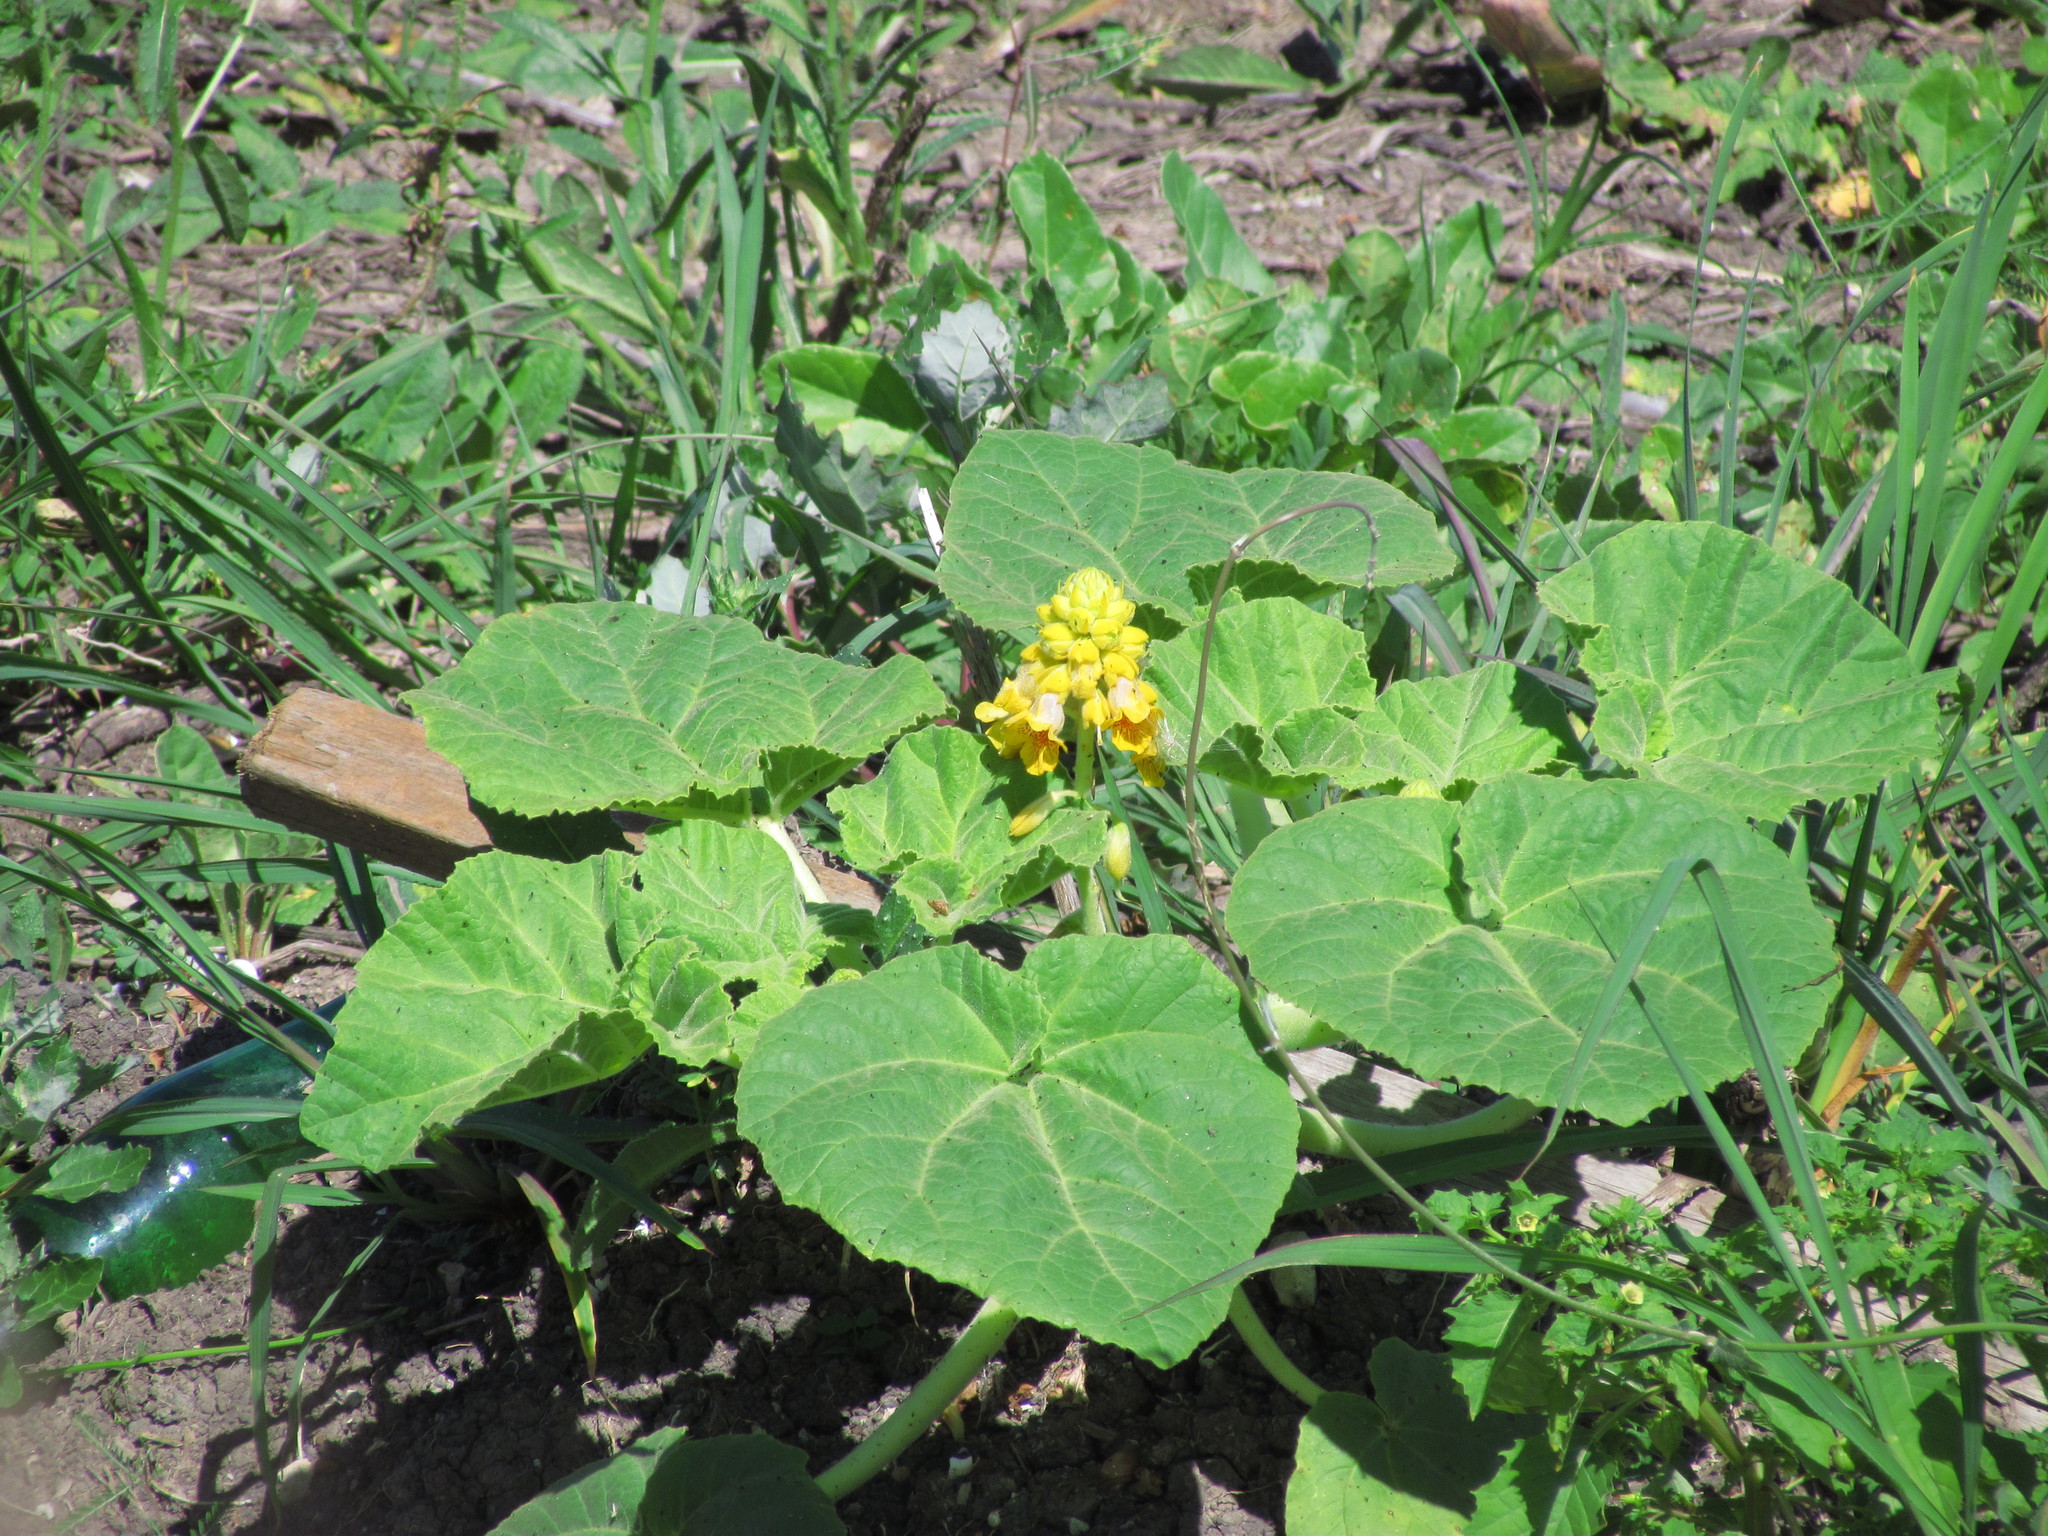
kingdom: Plantae
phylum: Tracheophyta
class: Magnoliopsida
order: Lamiales
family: Martyniaceae
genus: Ibicella
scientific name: Ibicella lutea
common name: Yellow unicorn-plant
